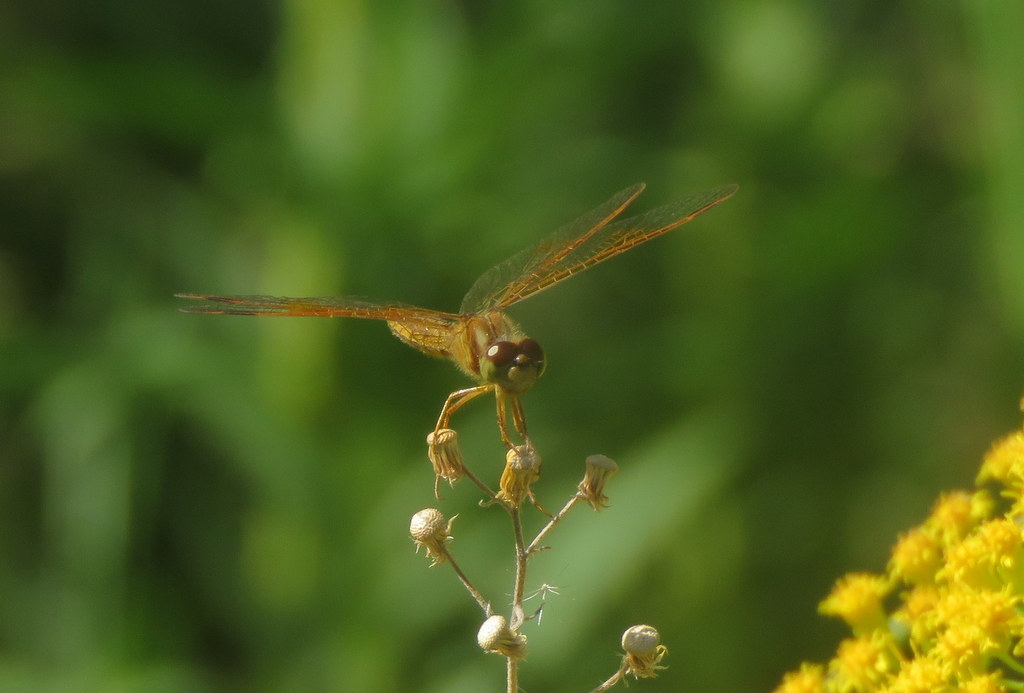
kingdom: Animalia
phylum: Arthropoda
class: Insecta
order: Odonata
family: Libellulidae
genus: Perithemis
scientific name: Perithemis tenera
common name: Eastern amberwing
